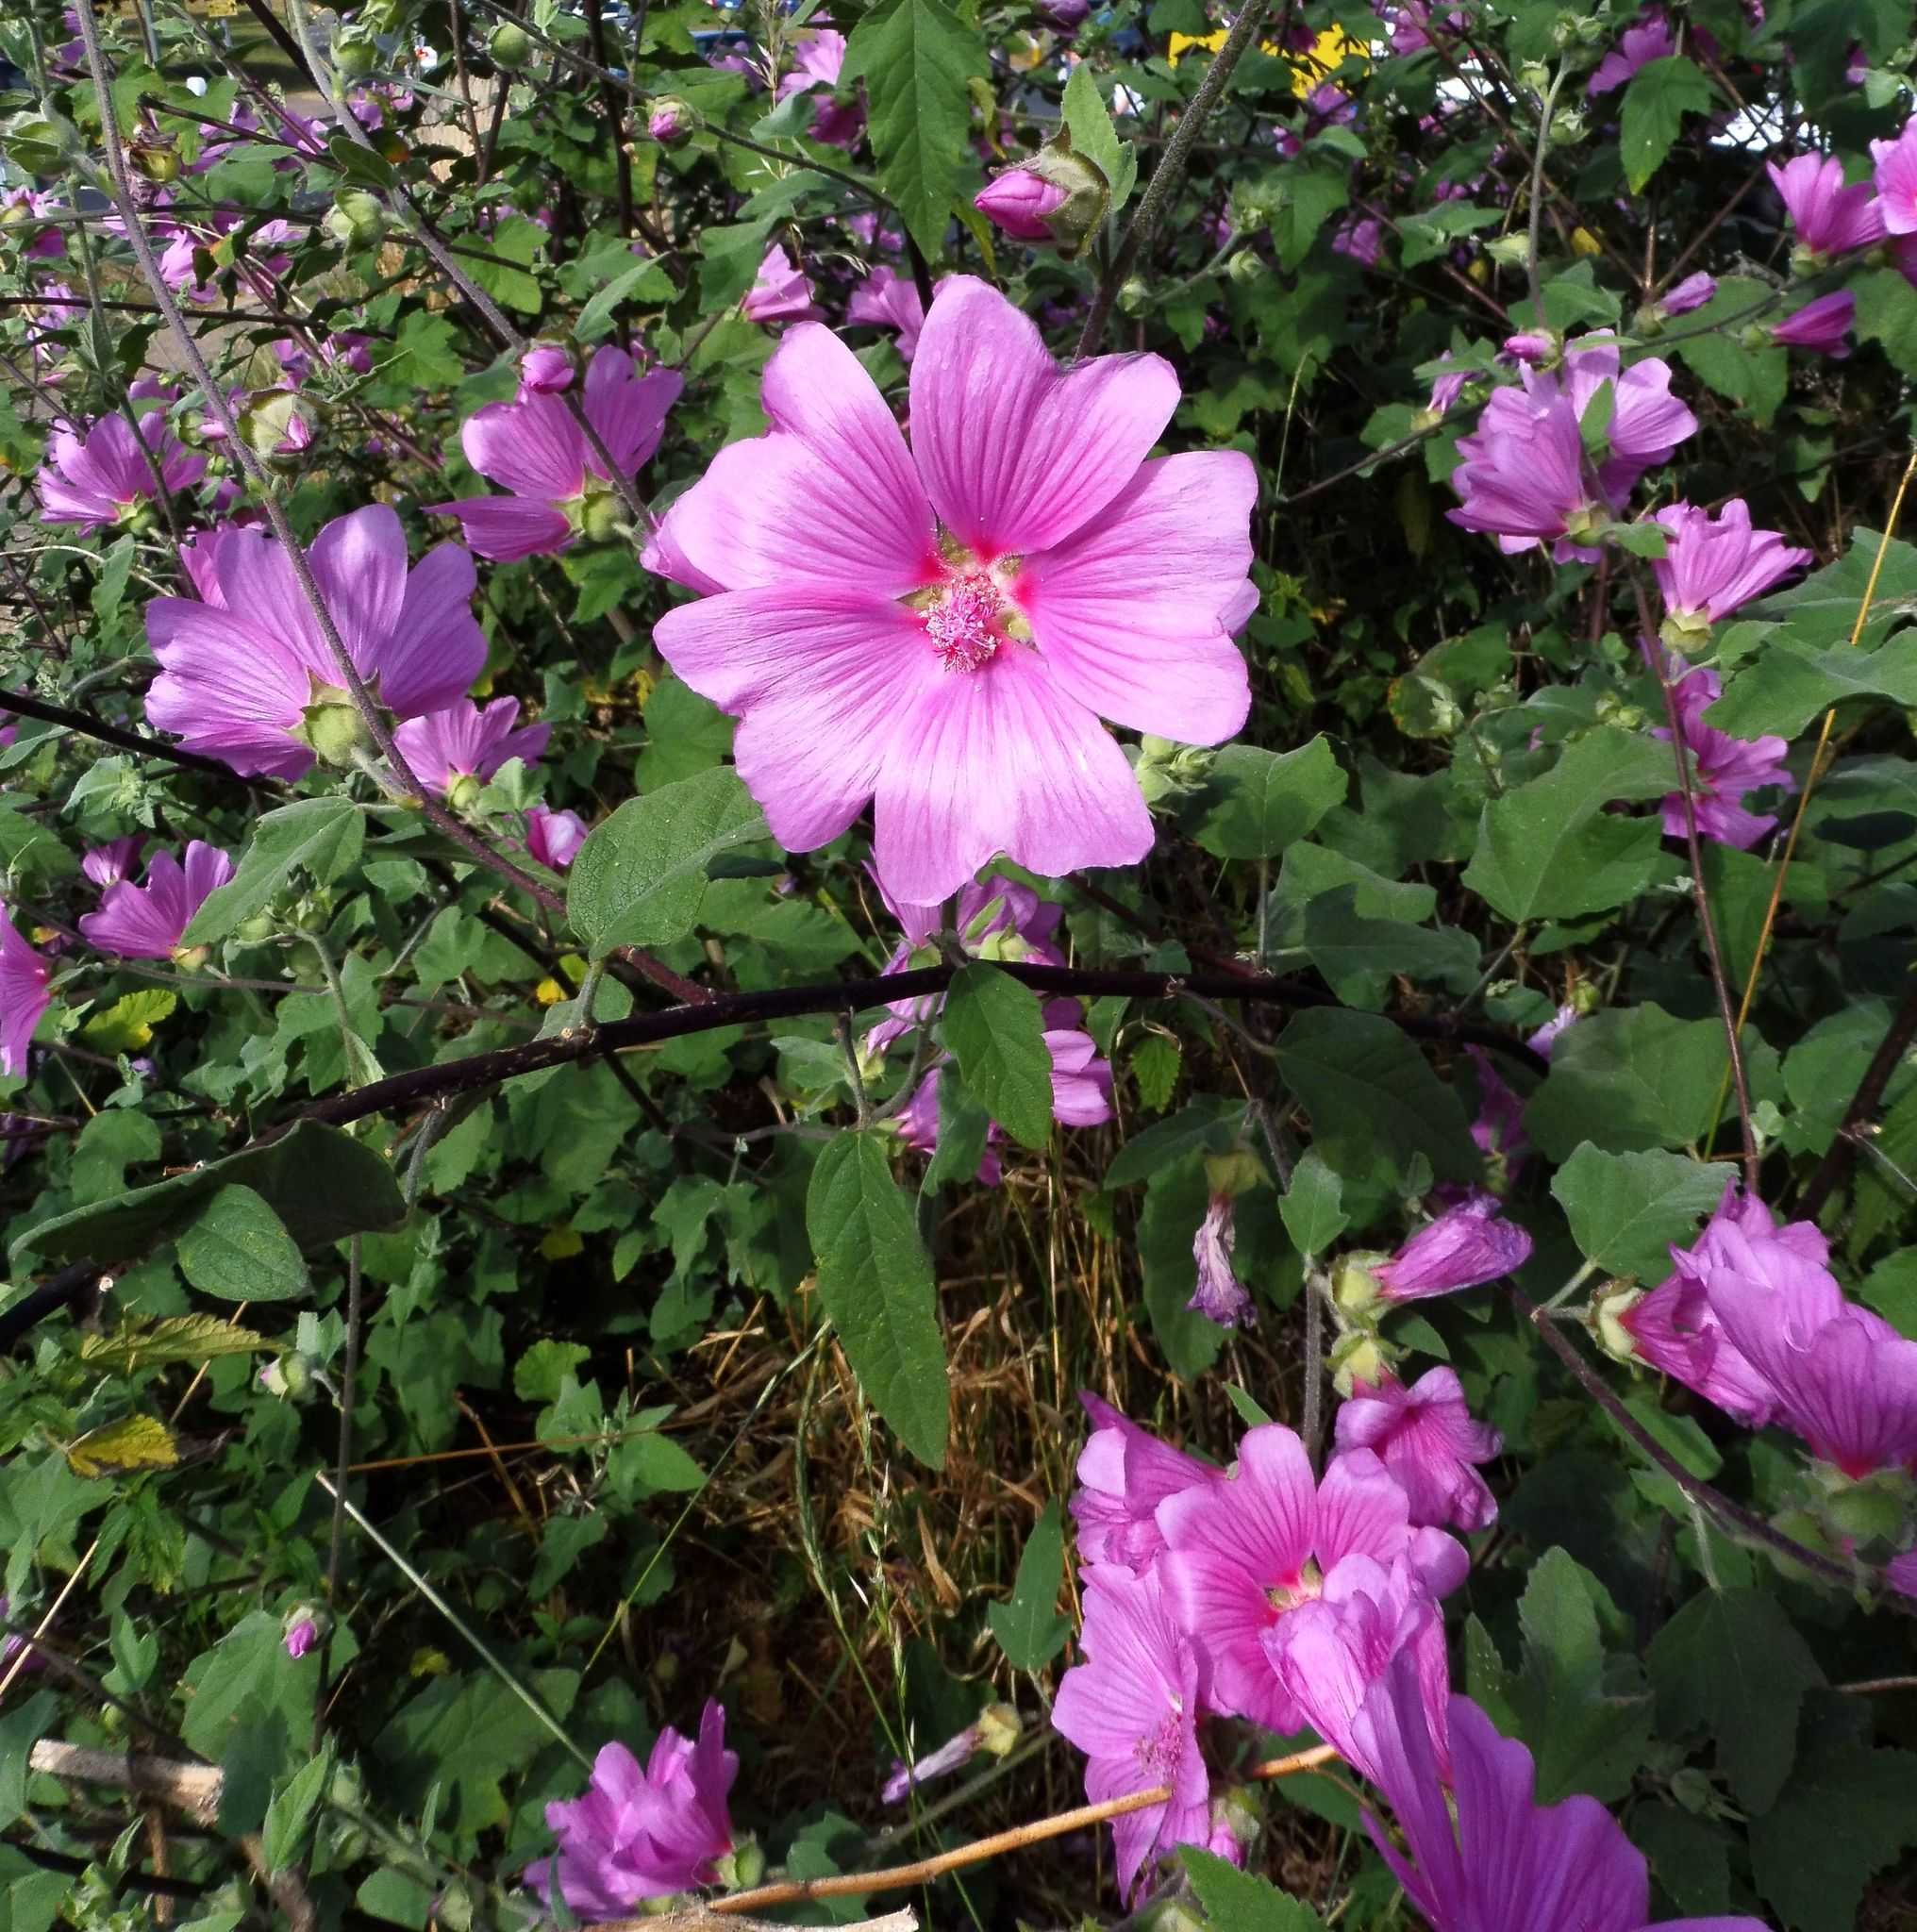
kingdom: Plantae
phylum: Tracheophyta
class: Magnoliopsida
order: Malvales
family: Malvaceae
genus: Malva
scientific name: Malva clementii
